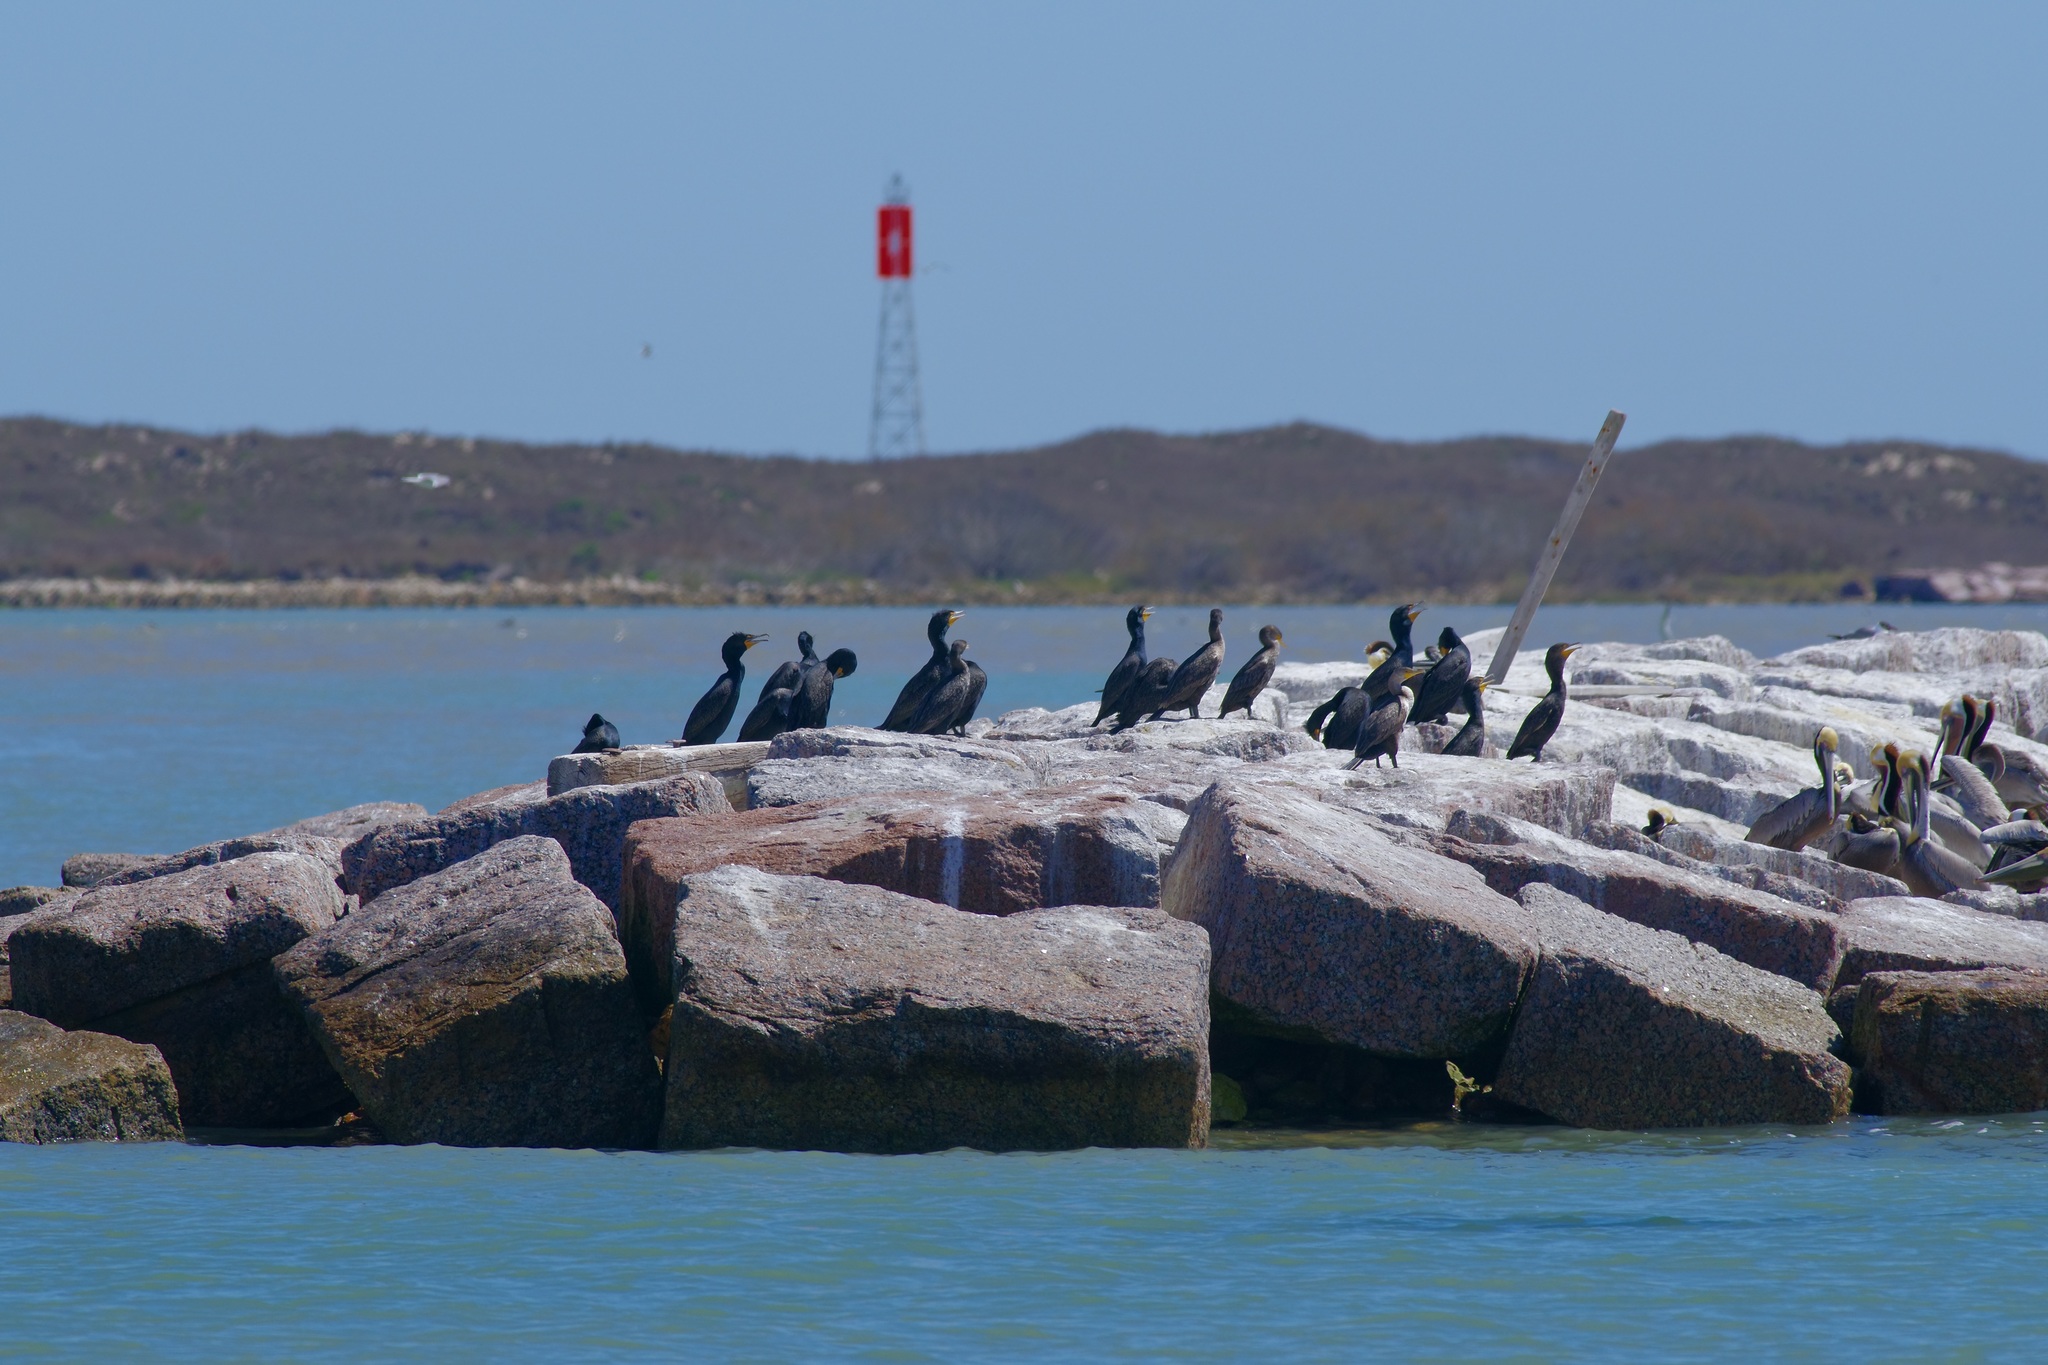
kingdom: Animalia
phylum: Chordata
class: Aves
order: Suliformes
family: Phalacrocoracidae
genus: Phalacrocorax
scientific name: Phalacrocorax auritus
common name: Double-crested cormorant
